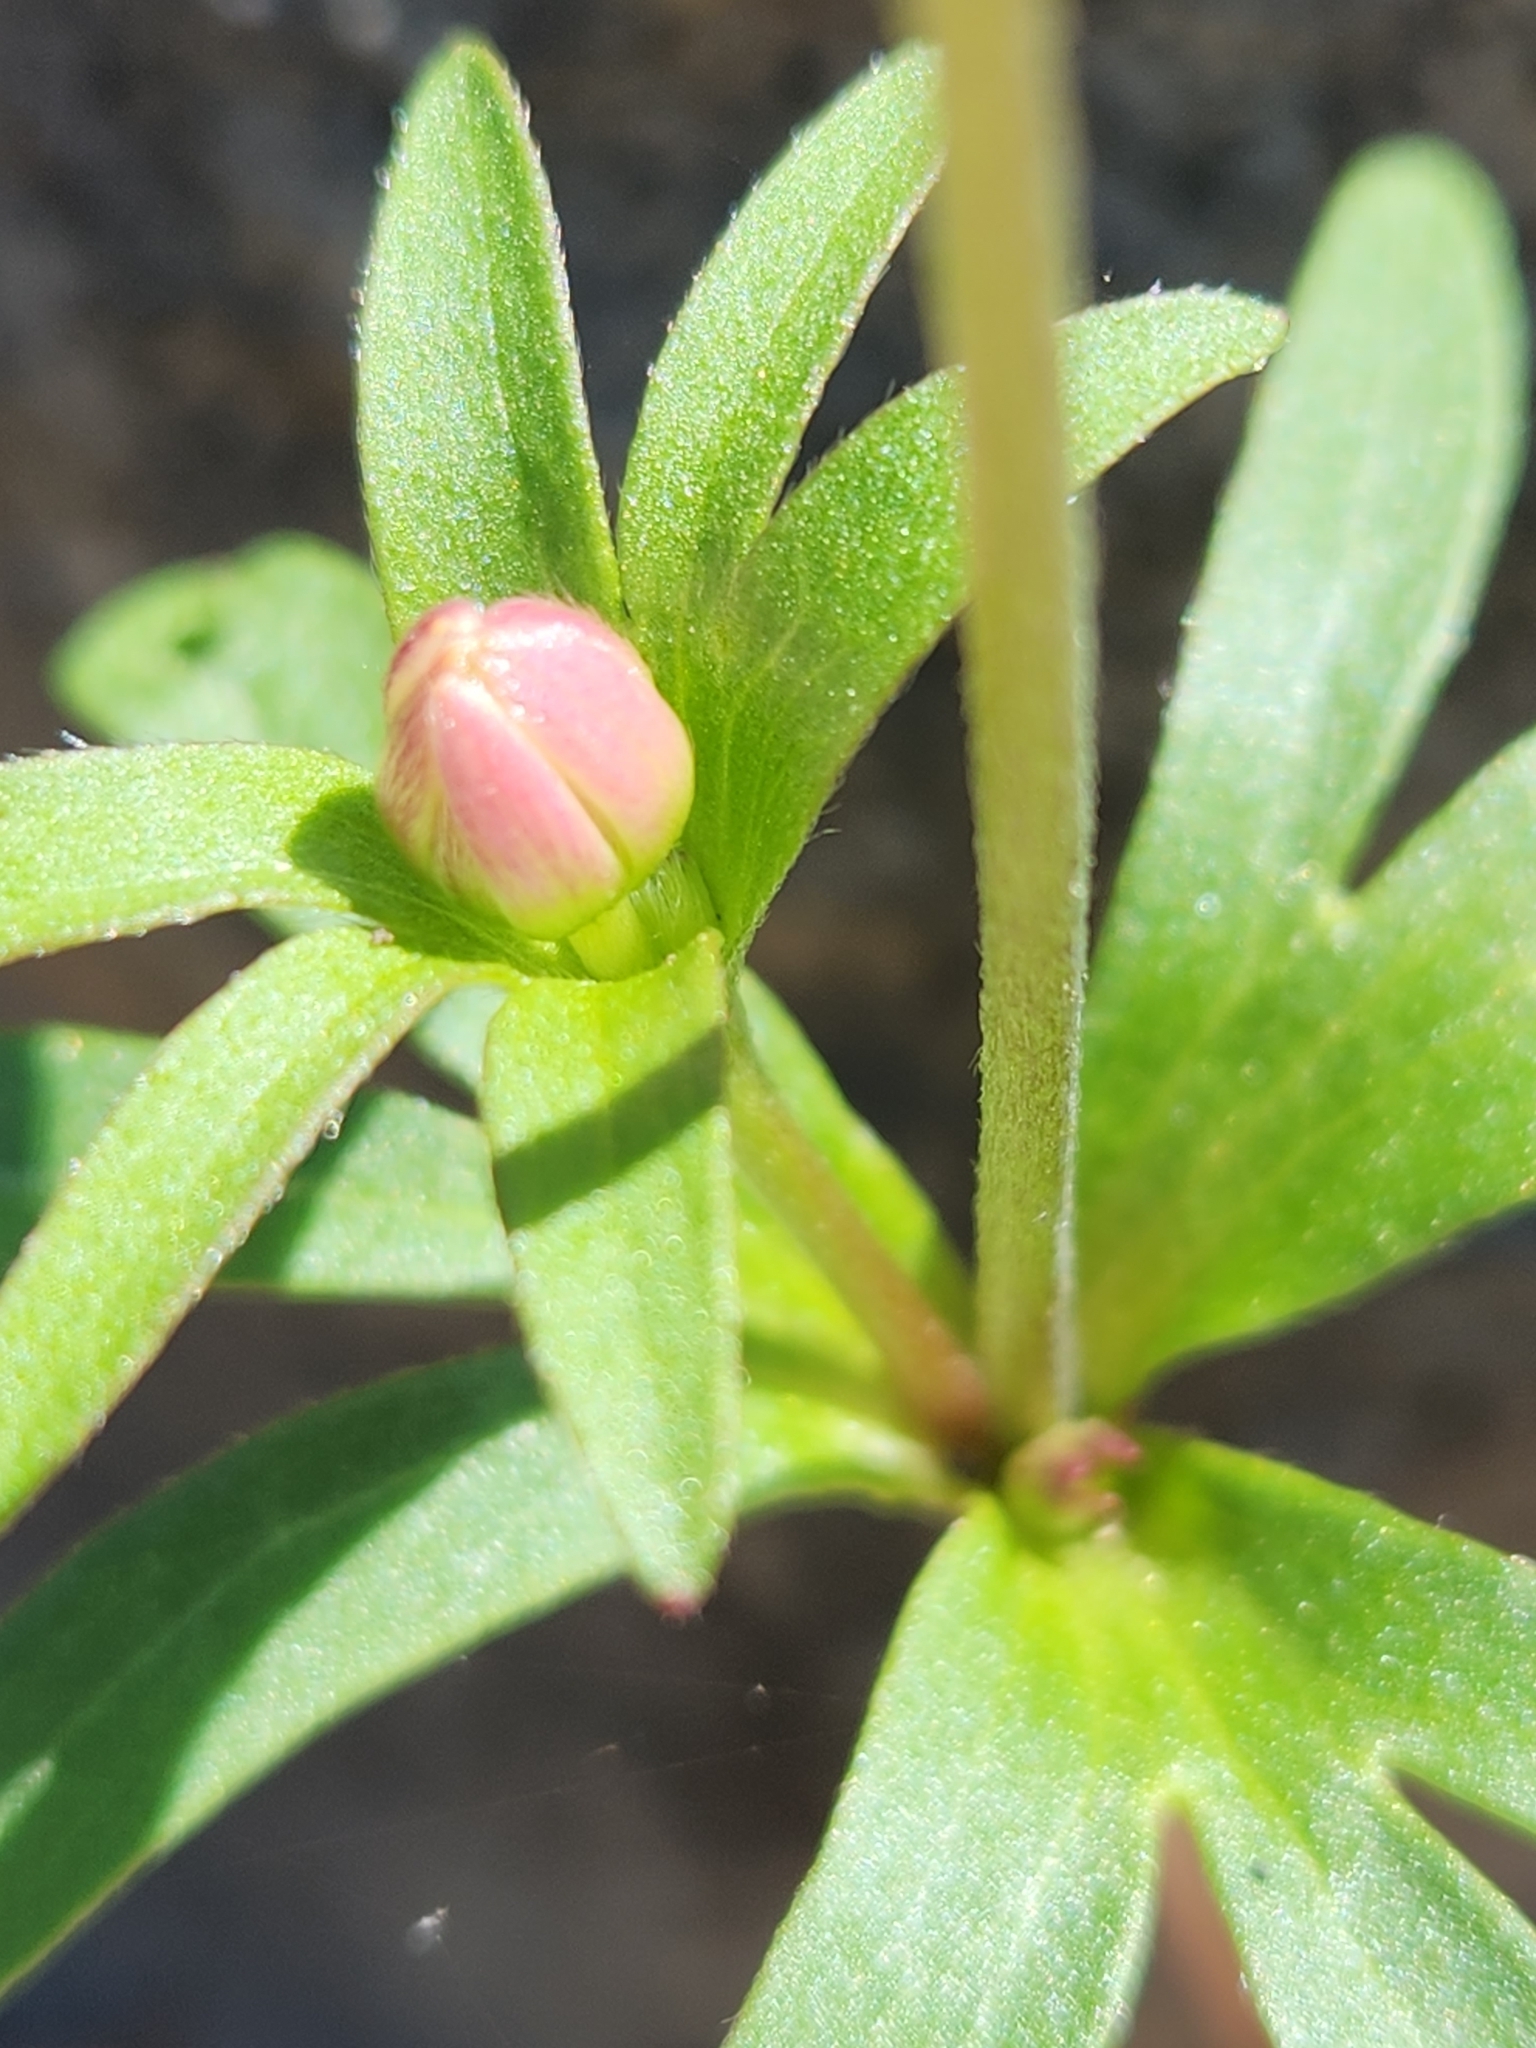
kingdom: Plantae
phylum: Tracheophyta
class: Magnoliopsida
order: Ranunculales
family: Ranunculaceae
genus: Anemone
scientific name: Anemone edwardsiana
